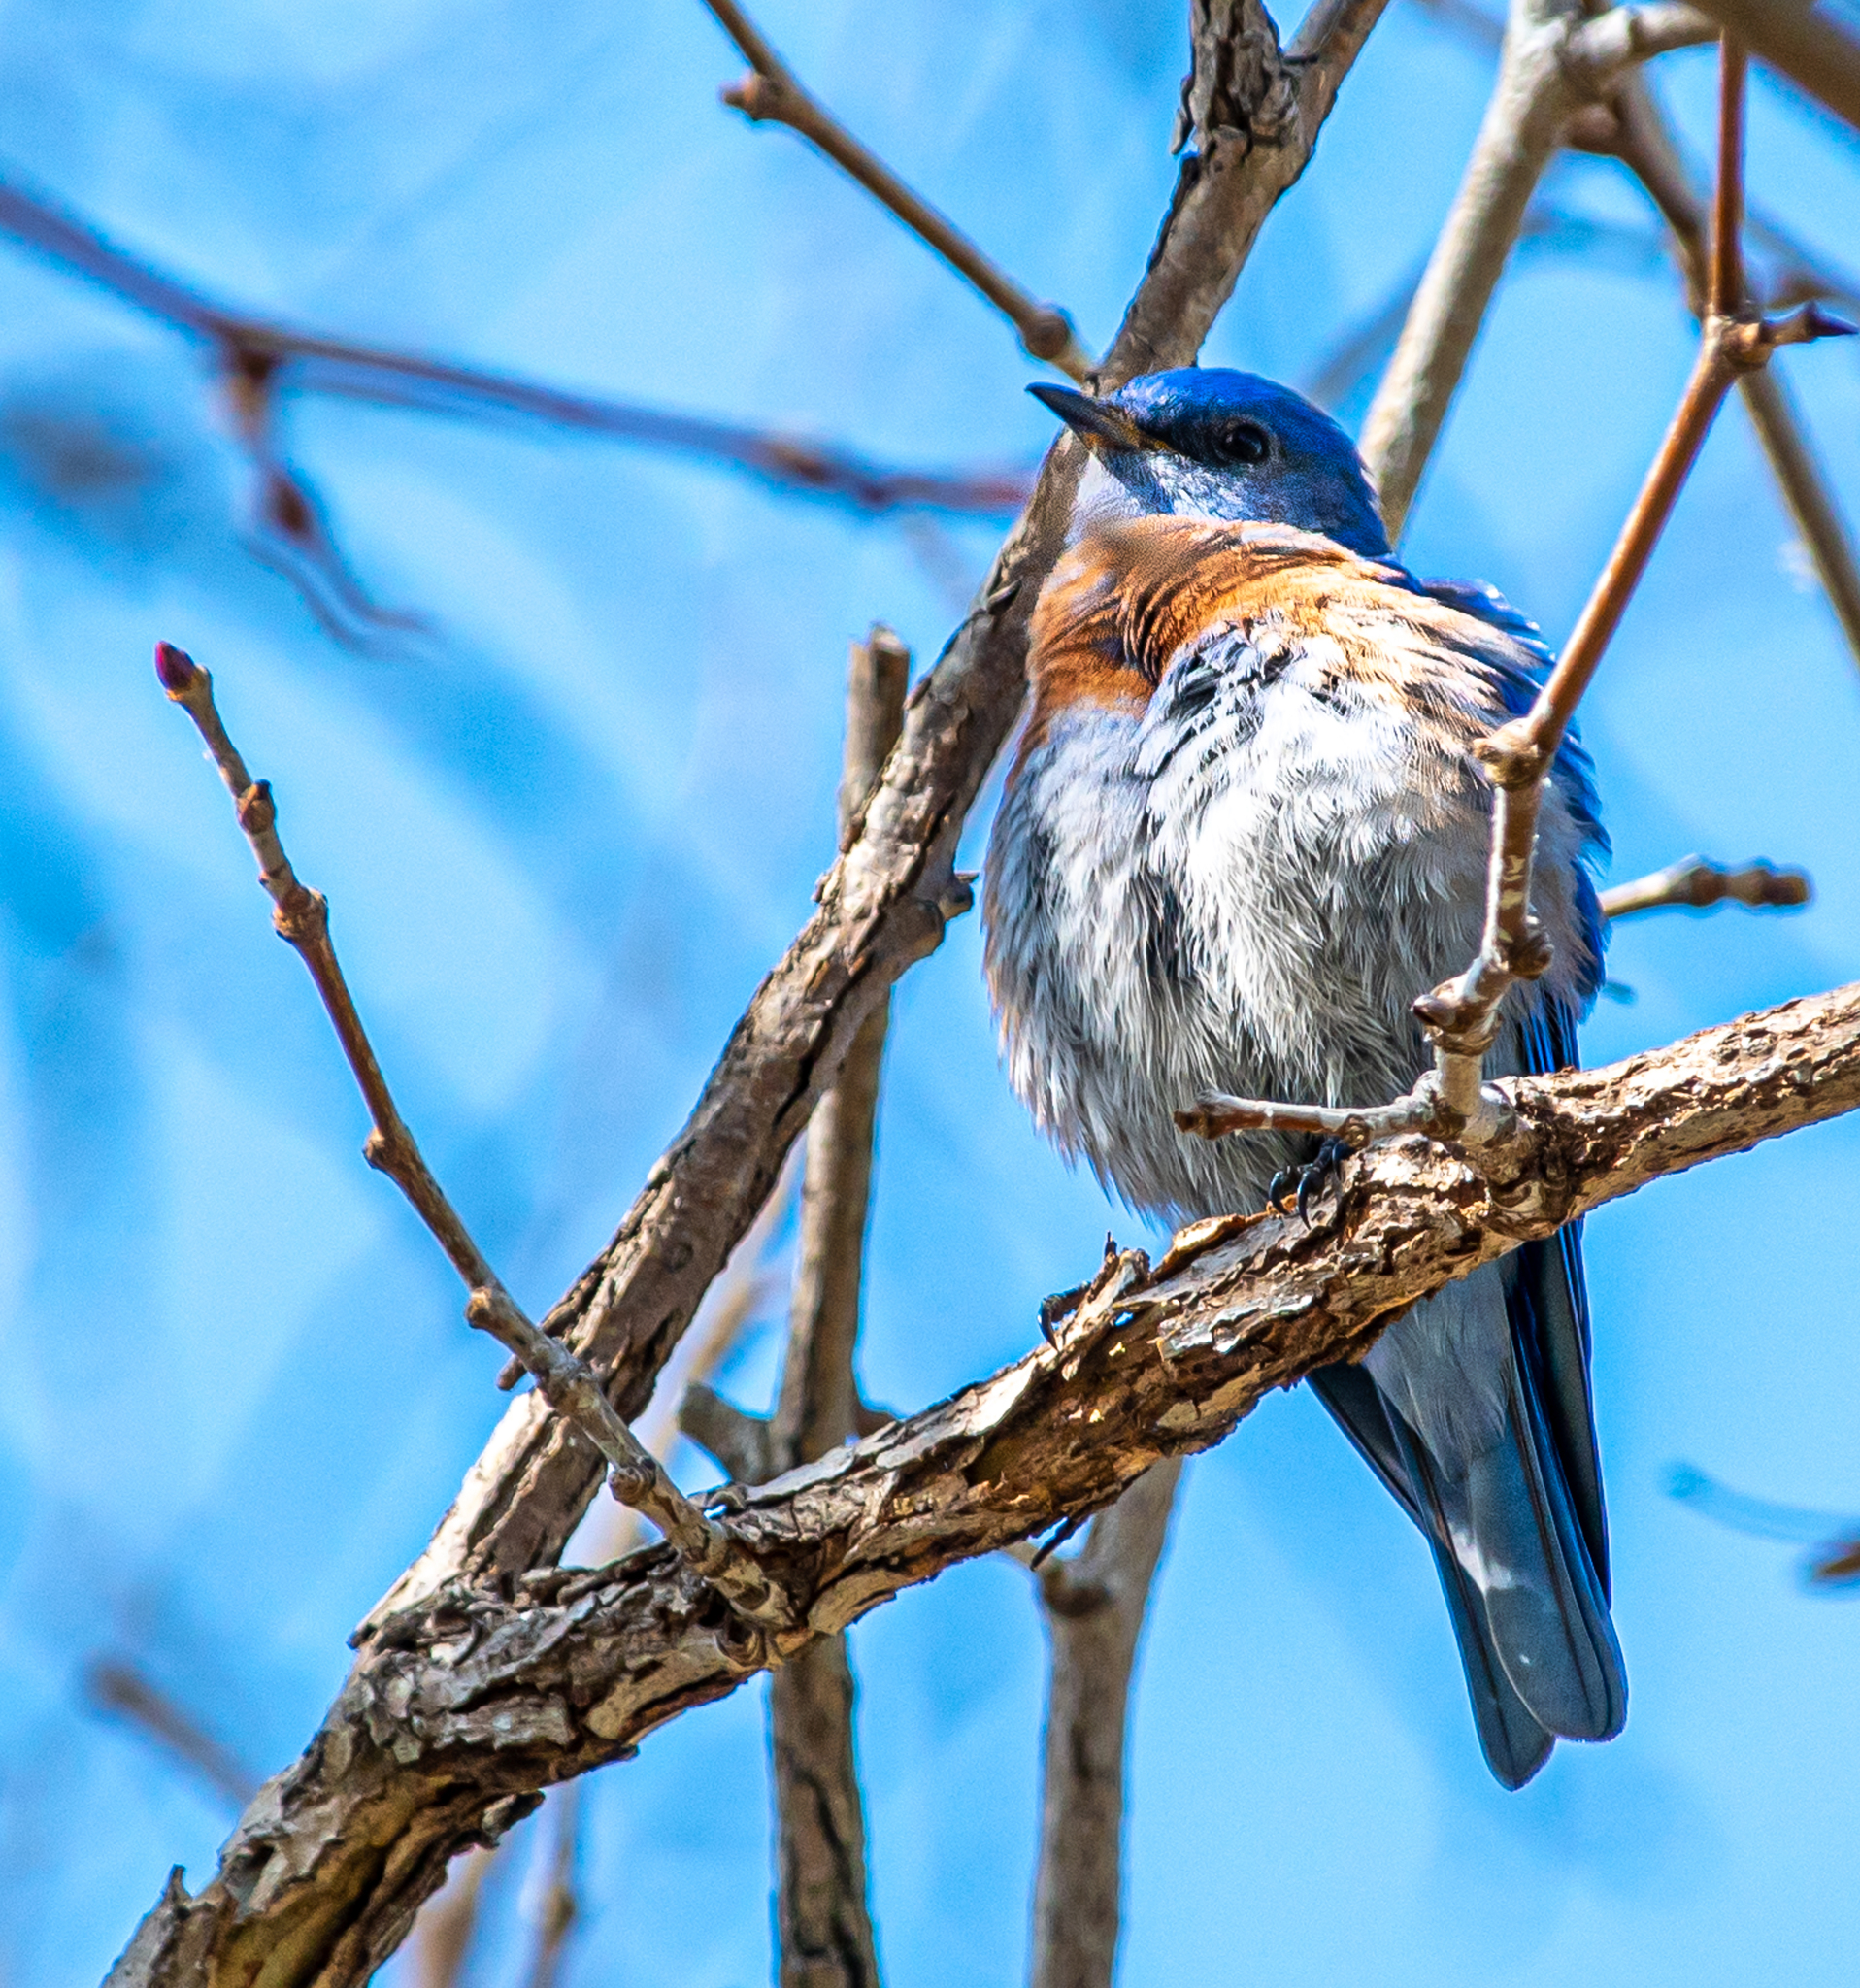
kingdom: Animalia
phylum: Chordata
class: Aves
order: Passeriformes
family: Turdidae
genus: Sialia
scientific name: Sialia mexicana
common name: Western bluebird
